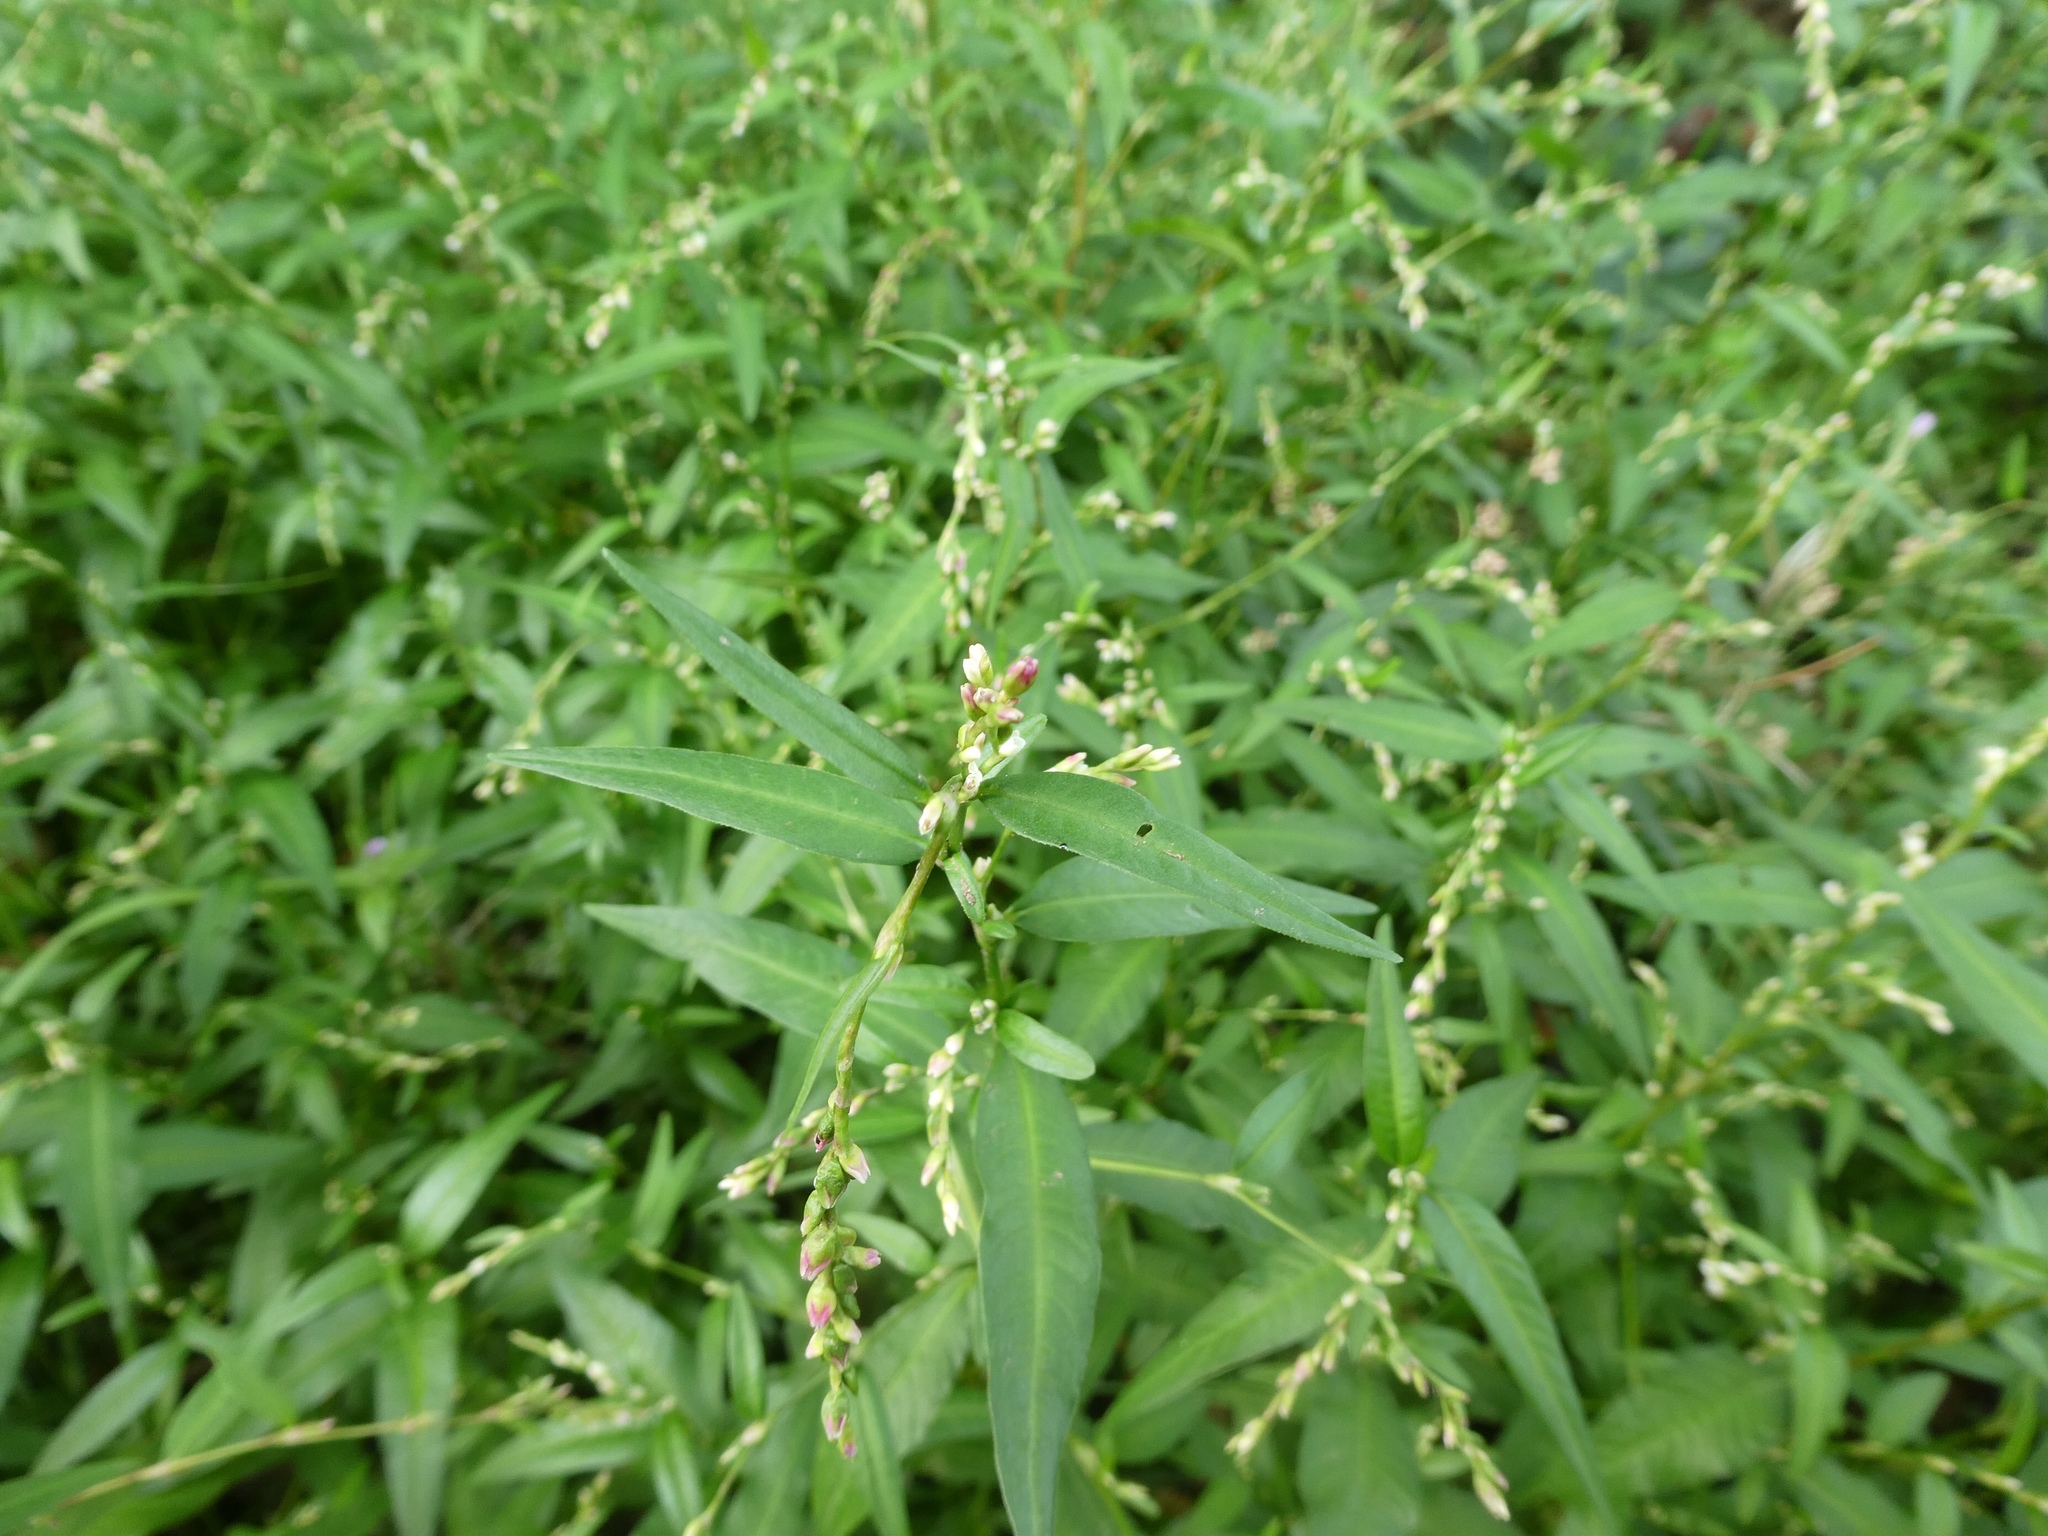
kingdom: Plantae
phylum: Tracheophyta
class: Magnoliopsida
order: Caryophyllales
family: Polygonaceae
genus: Persicaria
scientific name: Persicaria hydropiper
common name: Water-pepper
